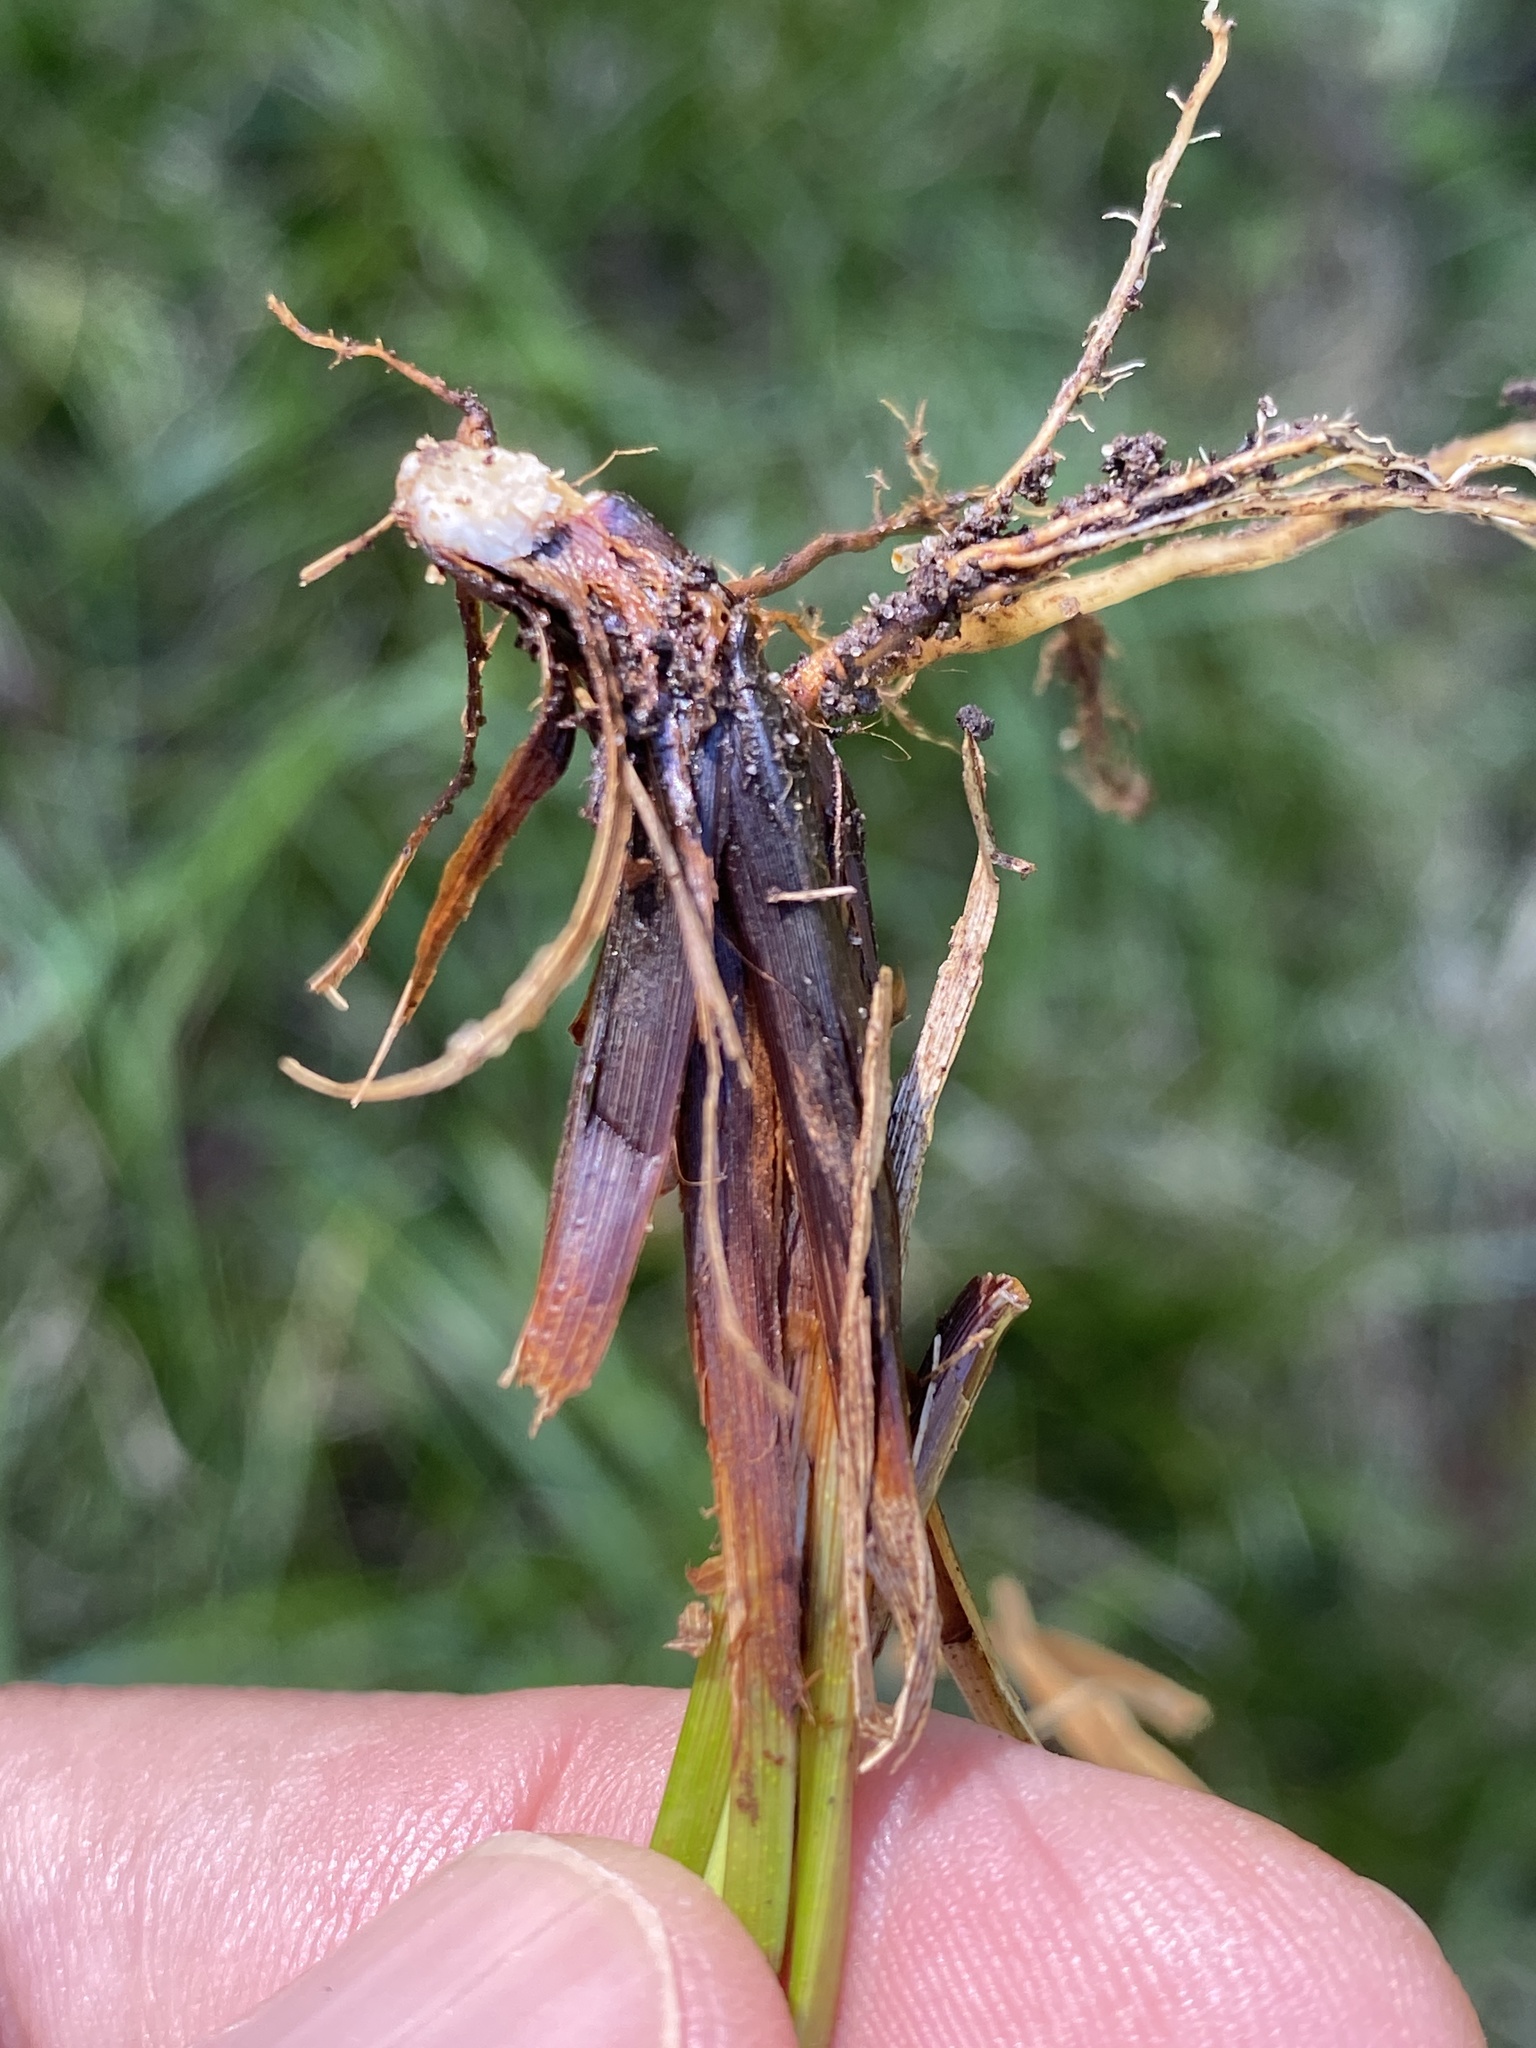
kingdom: Plantae
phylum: Tracheophyta
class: Liliopsida
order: Poales
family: Cyperaceae
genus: Carex
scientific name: Carex cherokeensis
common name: Cherokee sedge
